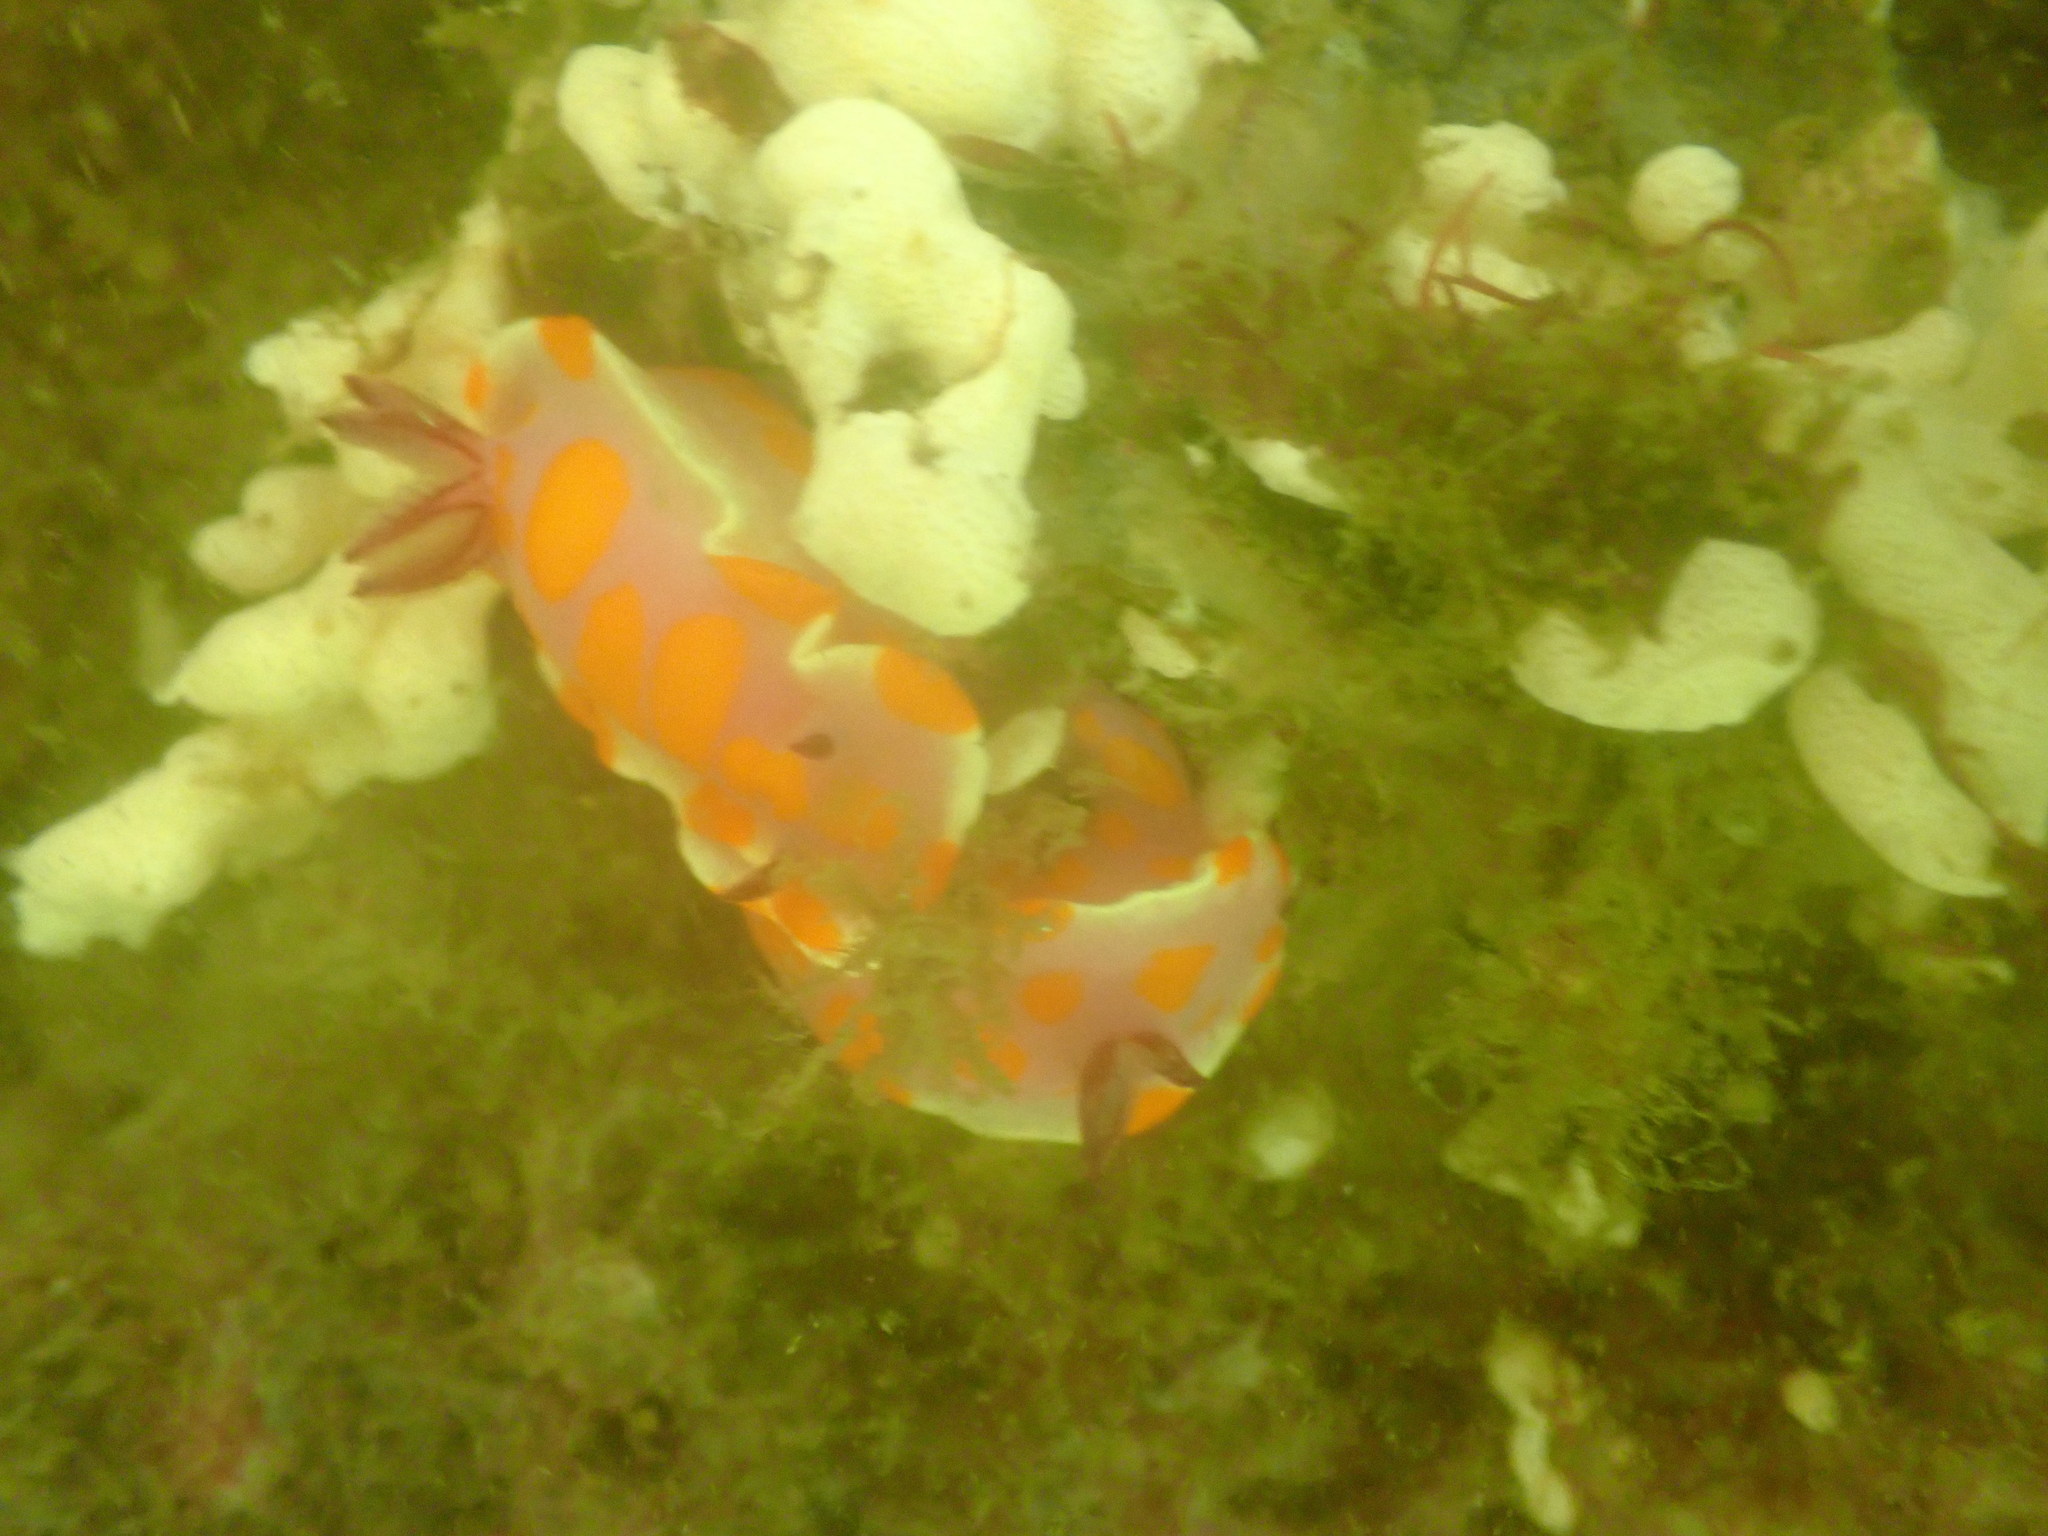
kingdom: Animalia
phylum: Mollusca
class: Gastropoda
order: Nudibranchia
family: Chromodorididae
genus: Ceratosoma
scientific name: Ceratosoma amoenum
